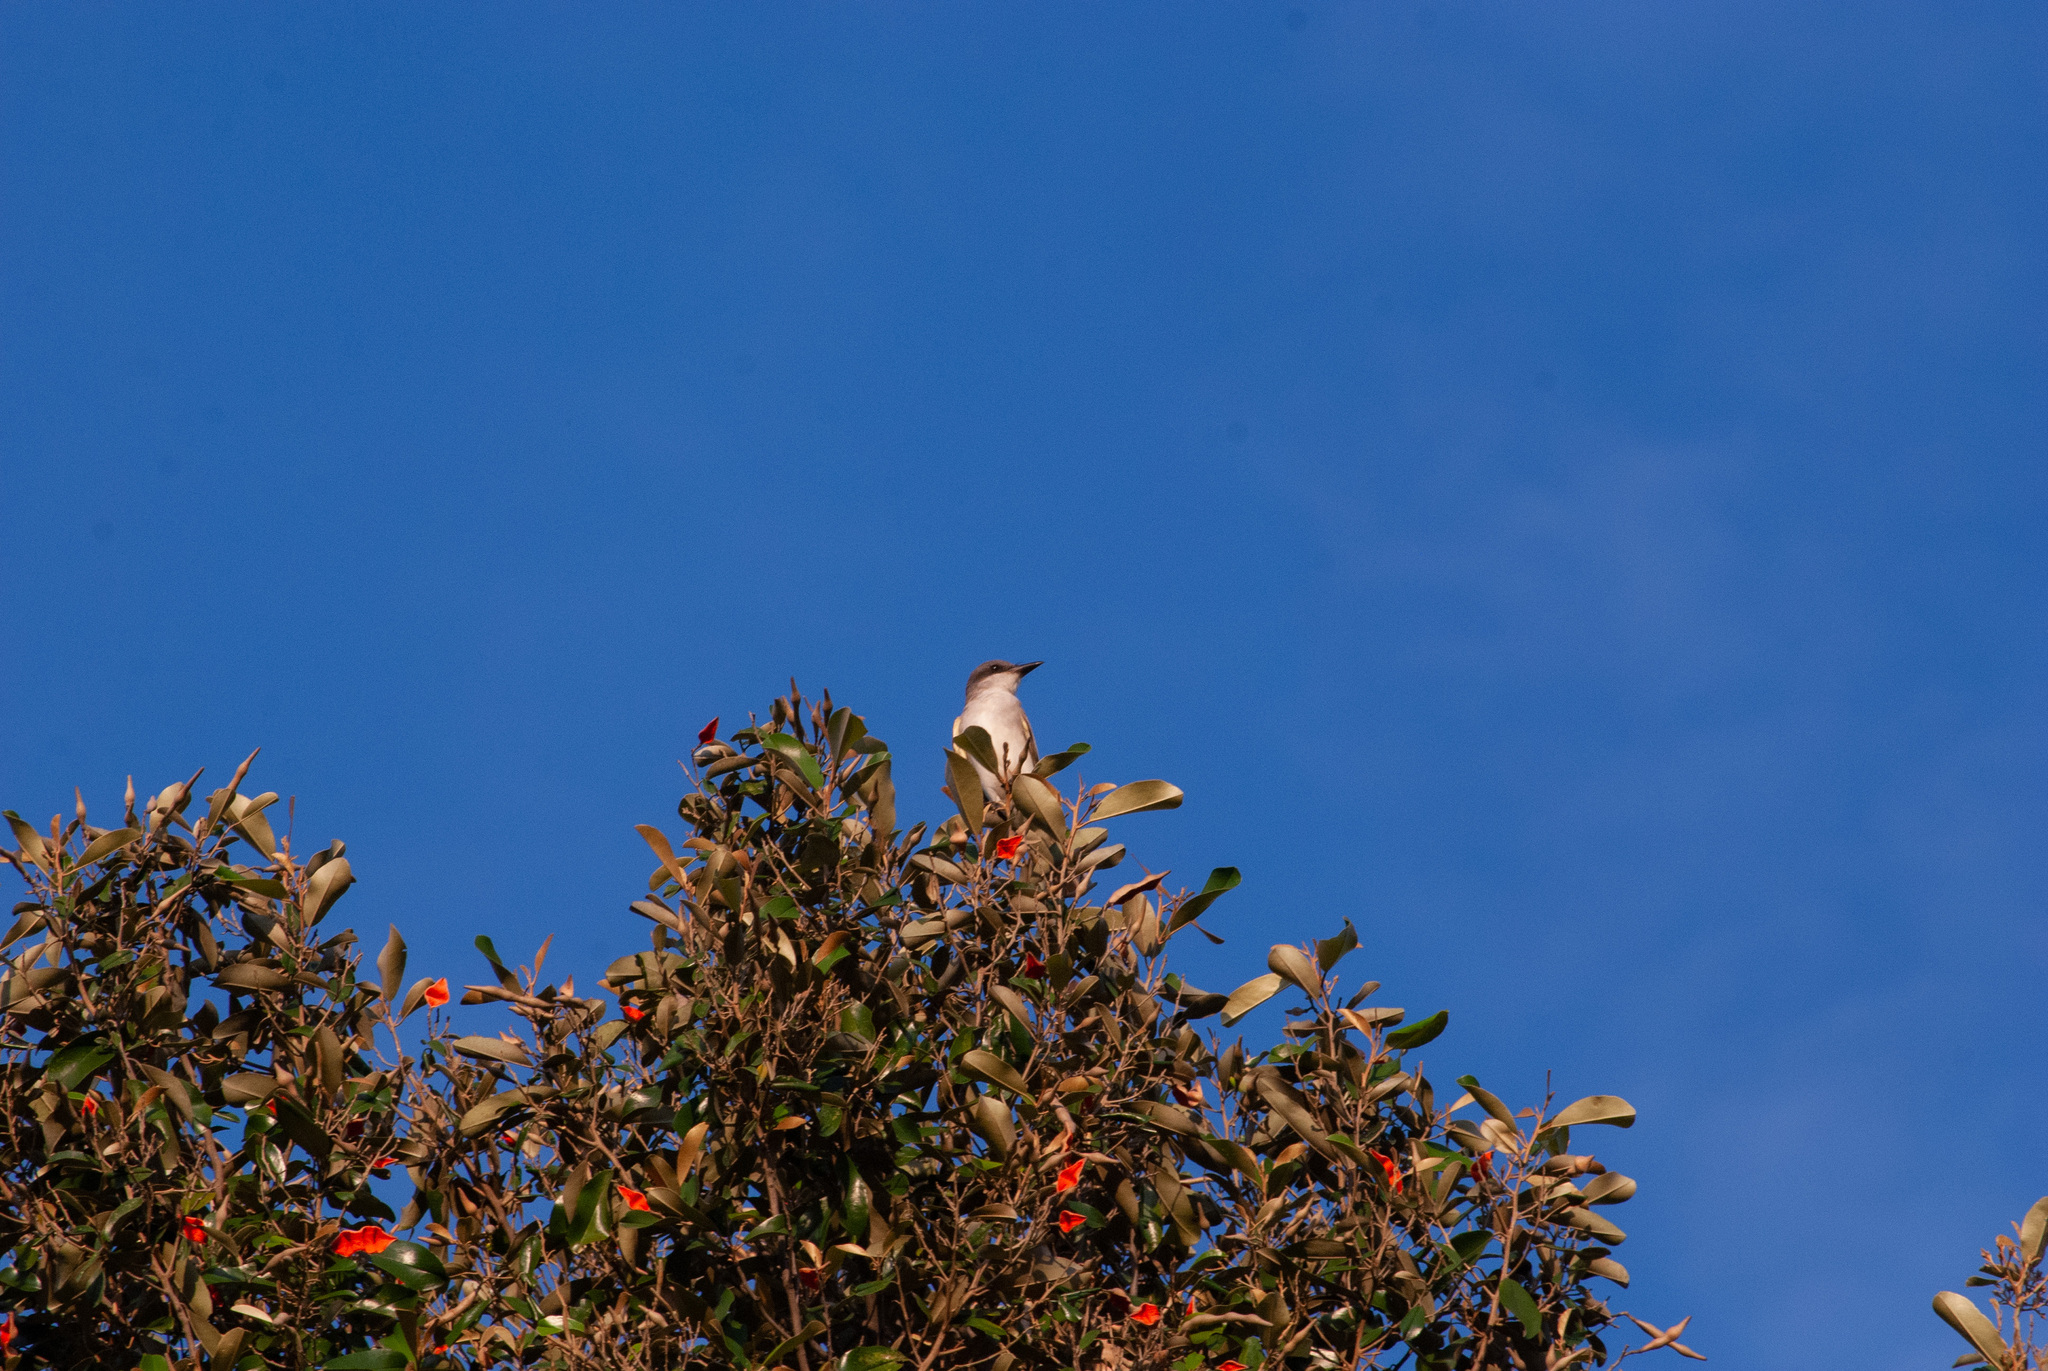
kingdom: Animalia
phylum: Chordata
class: Aves
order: Passeriformes
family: Tyrannidae
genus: Tyrannus
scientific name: Tyrannus dominicensis
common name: Gray kingbird
